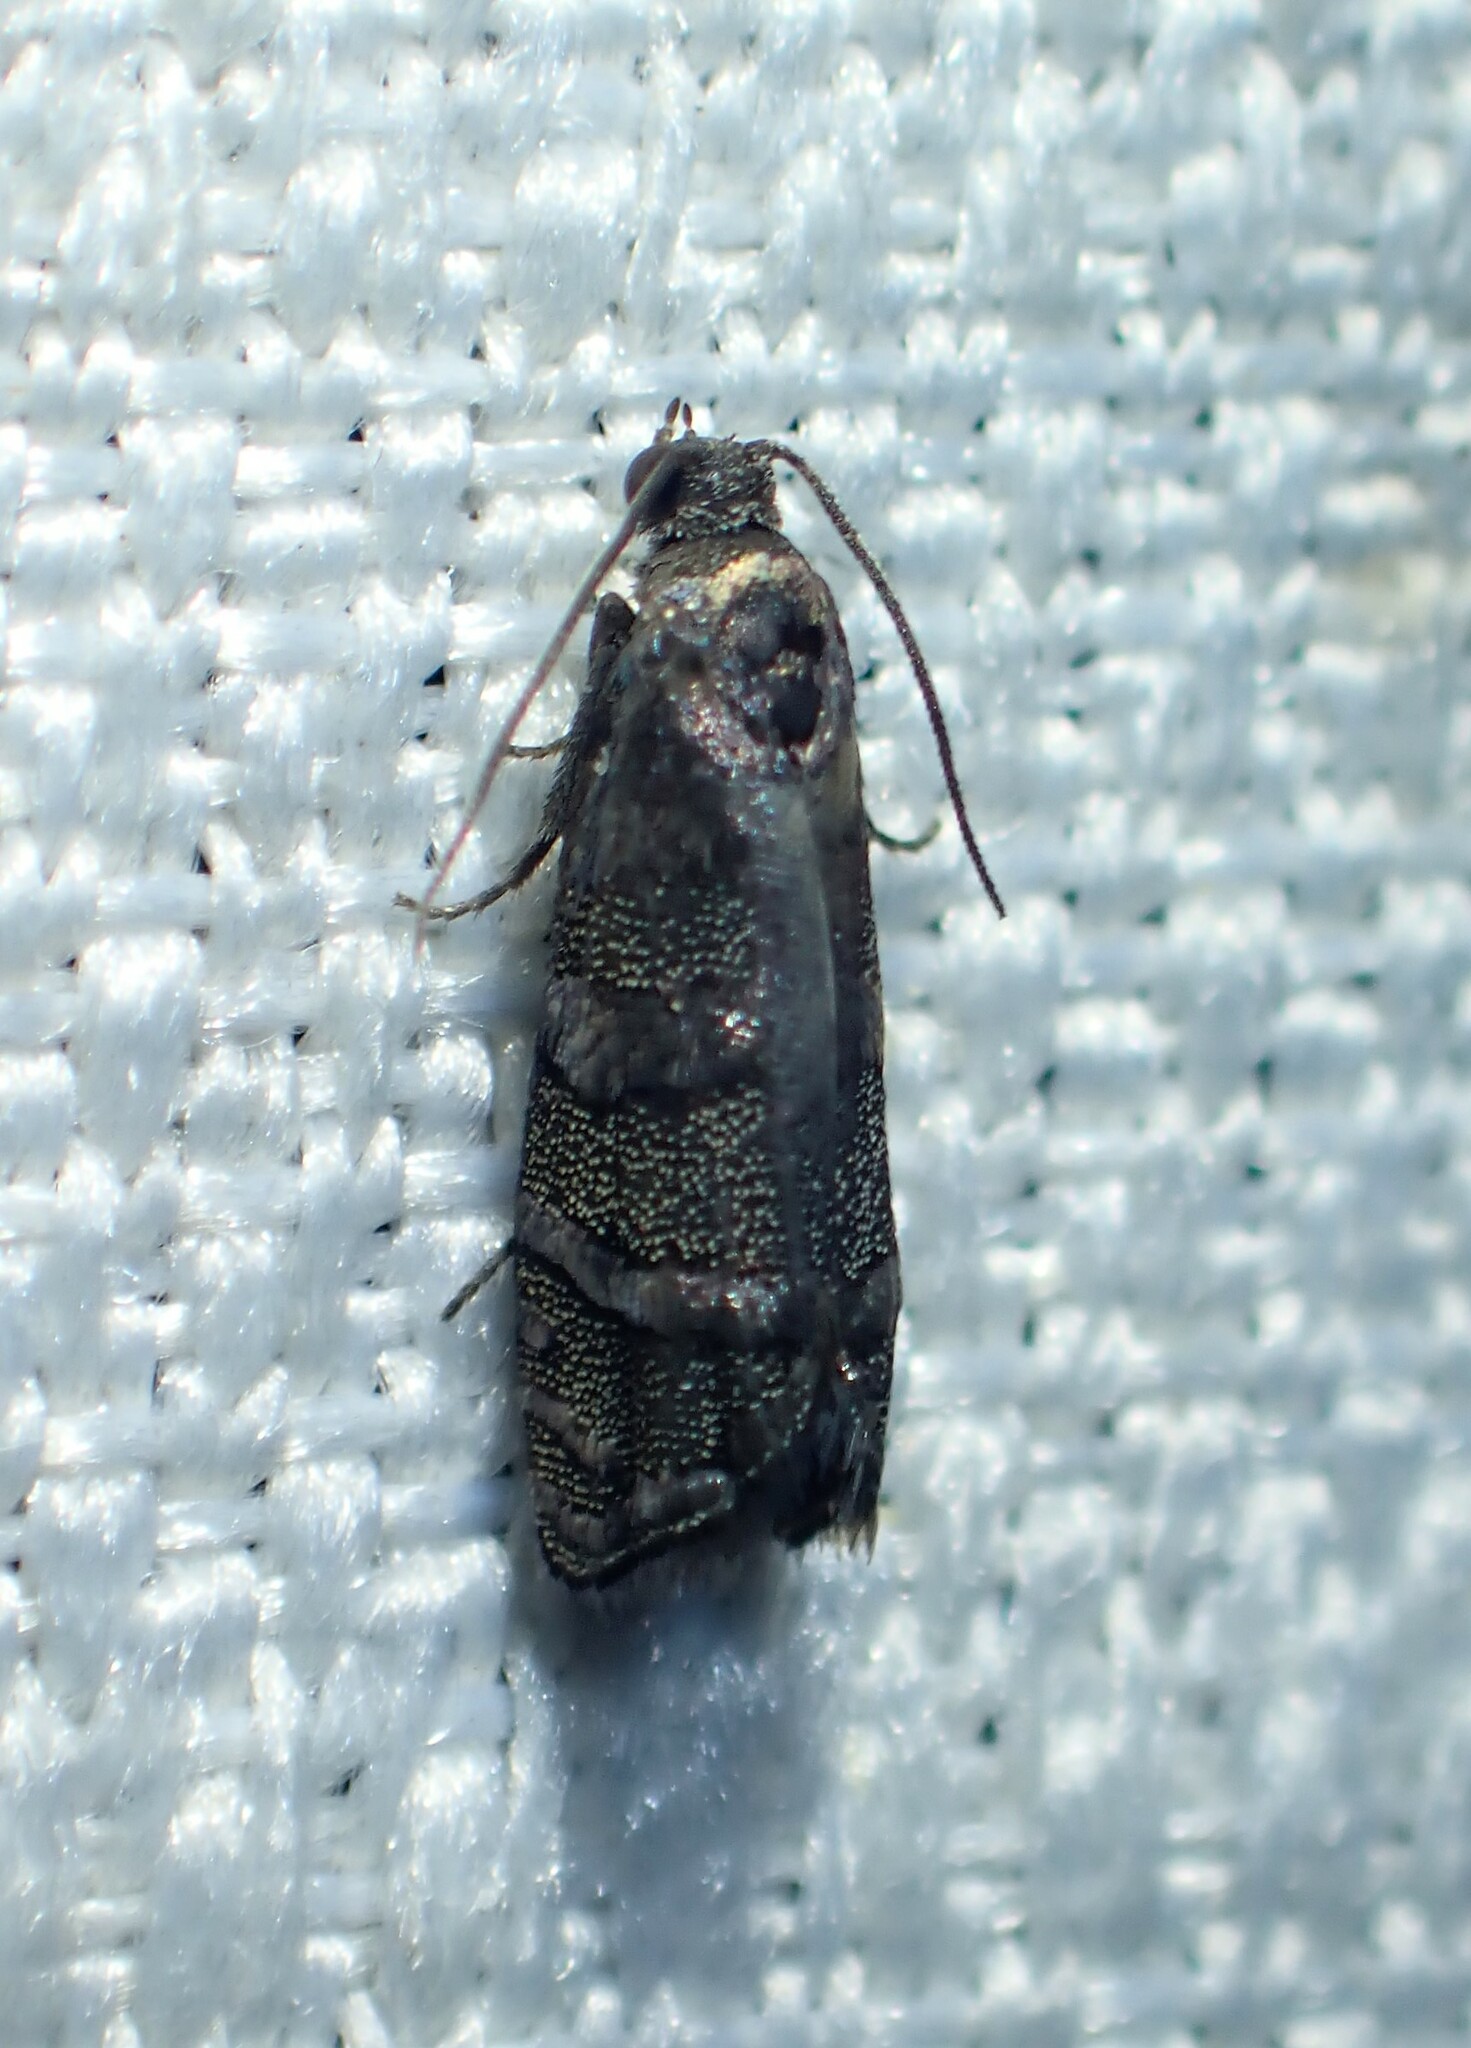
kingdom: Animalia
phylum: Arthropoda
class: Insecta
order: Lepidoptera
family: Tortricidae
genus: Cydia
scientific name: Cydia toreuta
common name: Eastern pine seedworm moth
